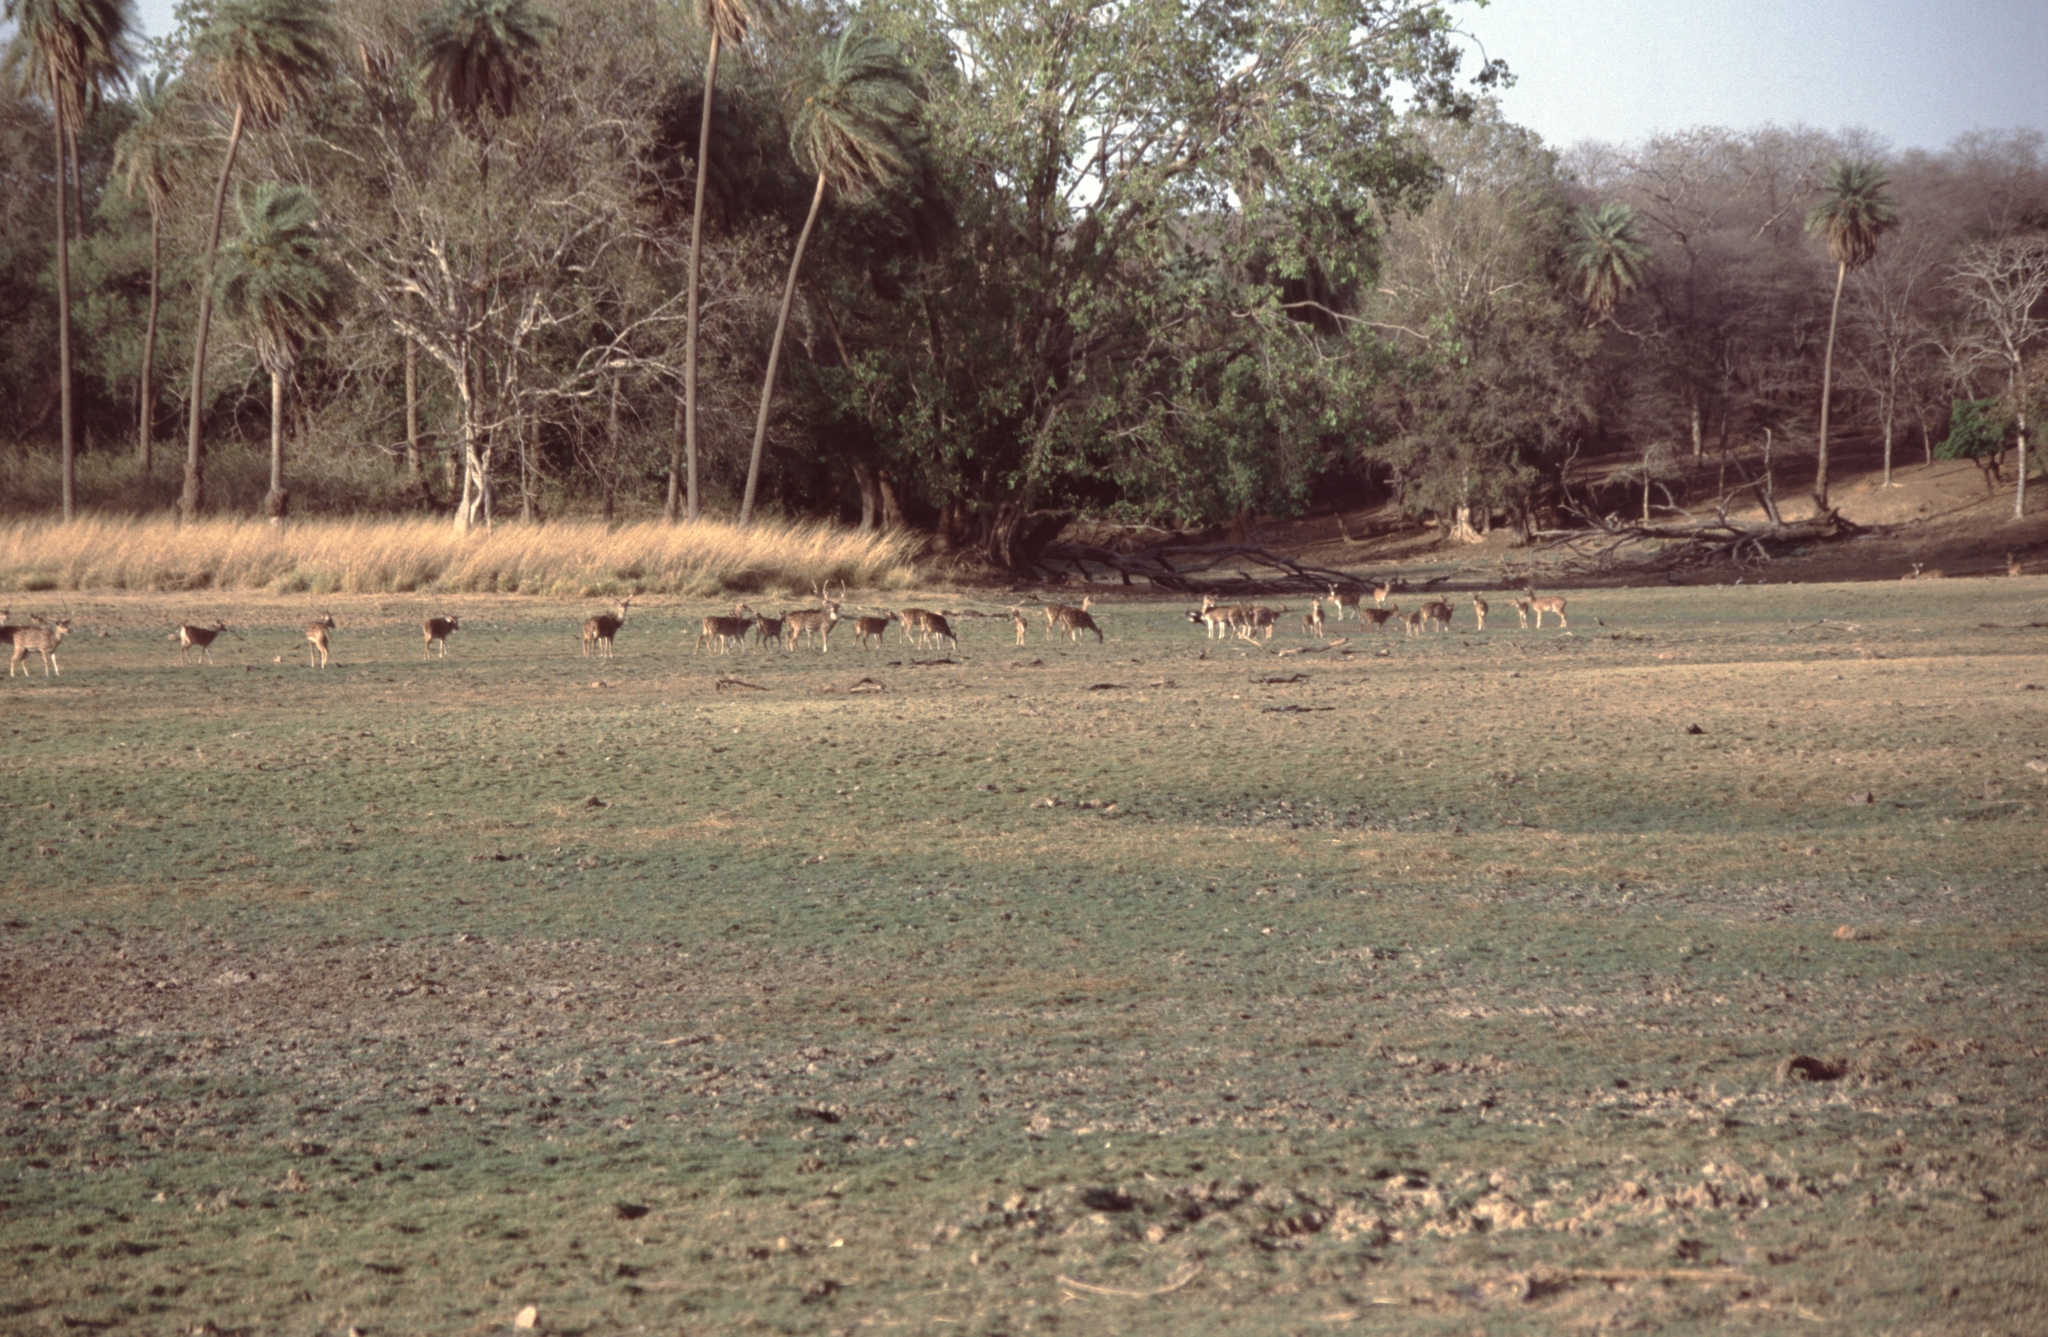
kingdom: Animalia
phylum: Chordata
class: Mammalia
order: Artiodactyla
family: Cervidae
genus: Axis
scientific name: Axis axis
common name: Chital
